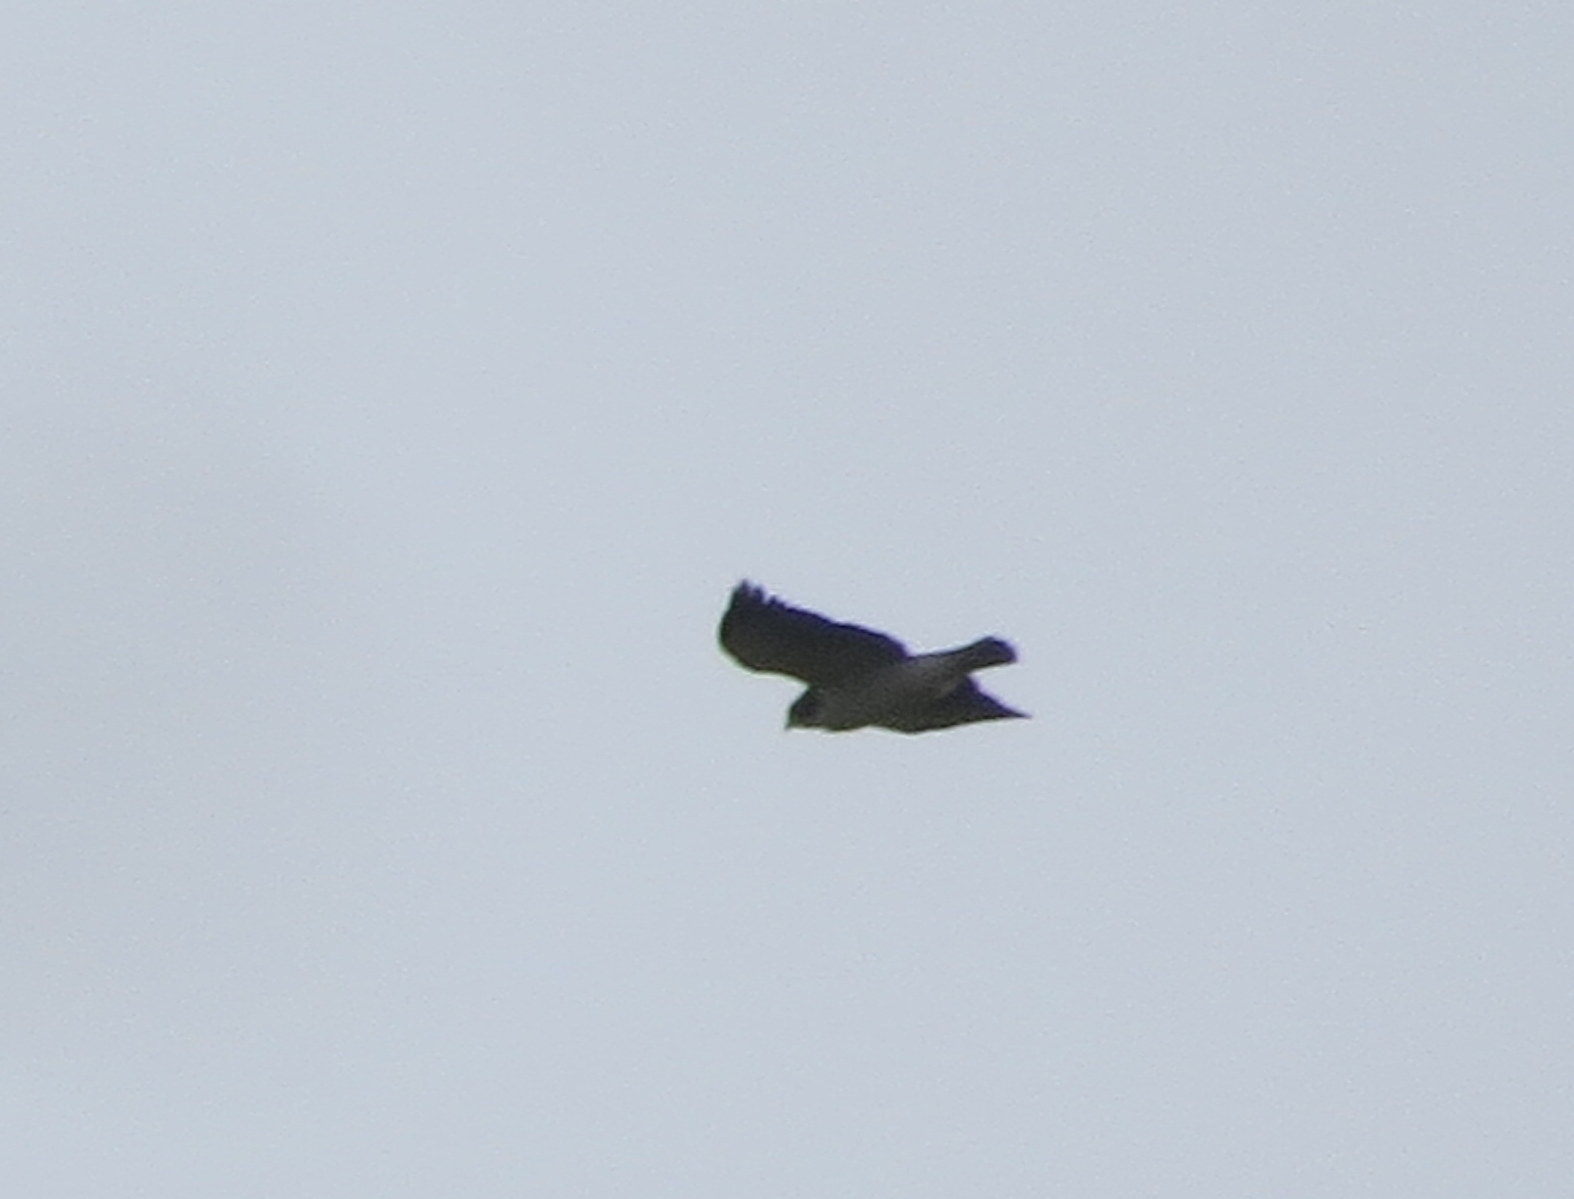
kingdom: Animalia
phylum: Chordata
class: Aves
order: Accipitriformes
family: Accipitridae
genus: Buteo
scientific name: Buteo brachyurus
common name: Short-tailed hawk
